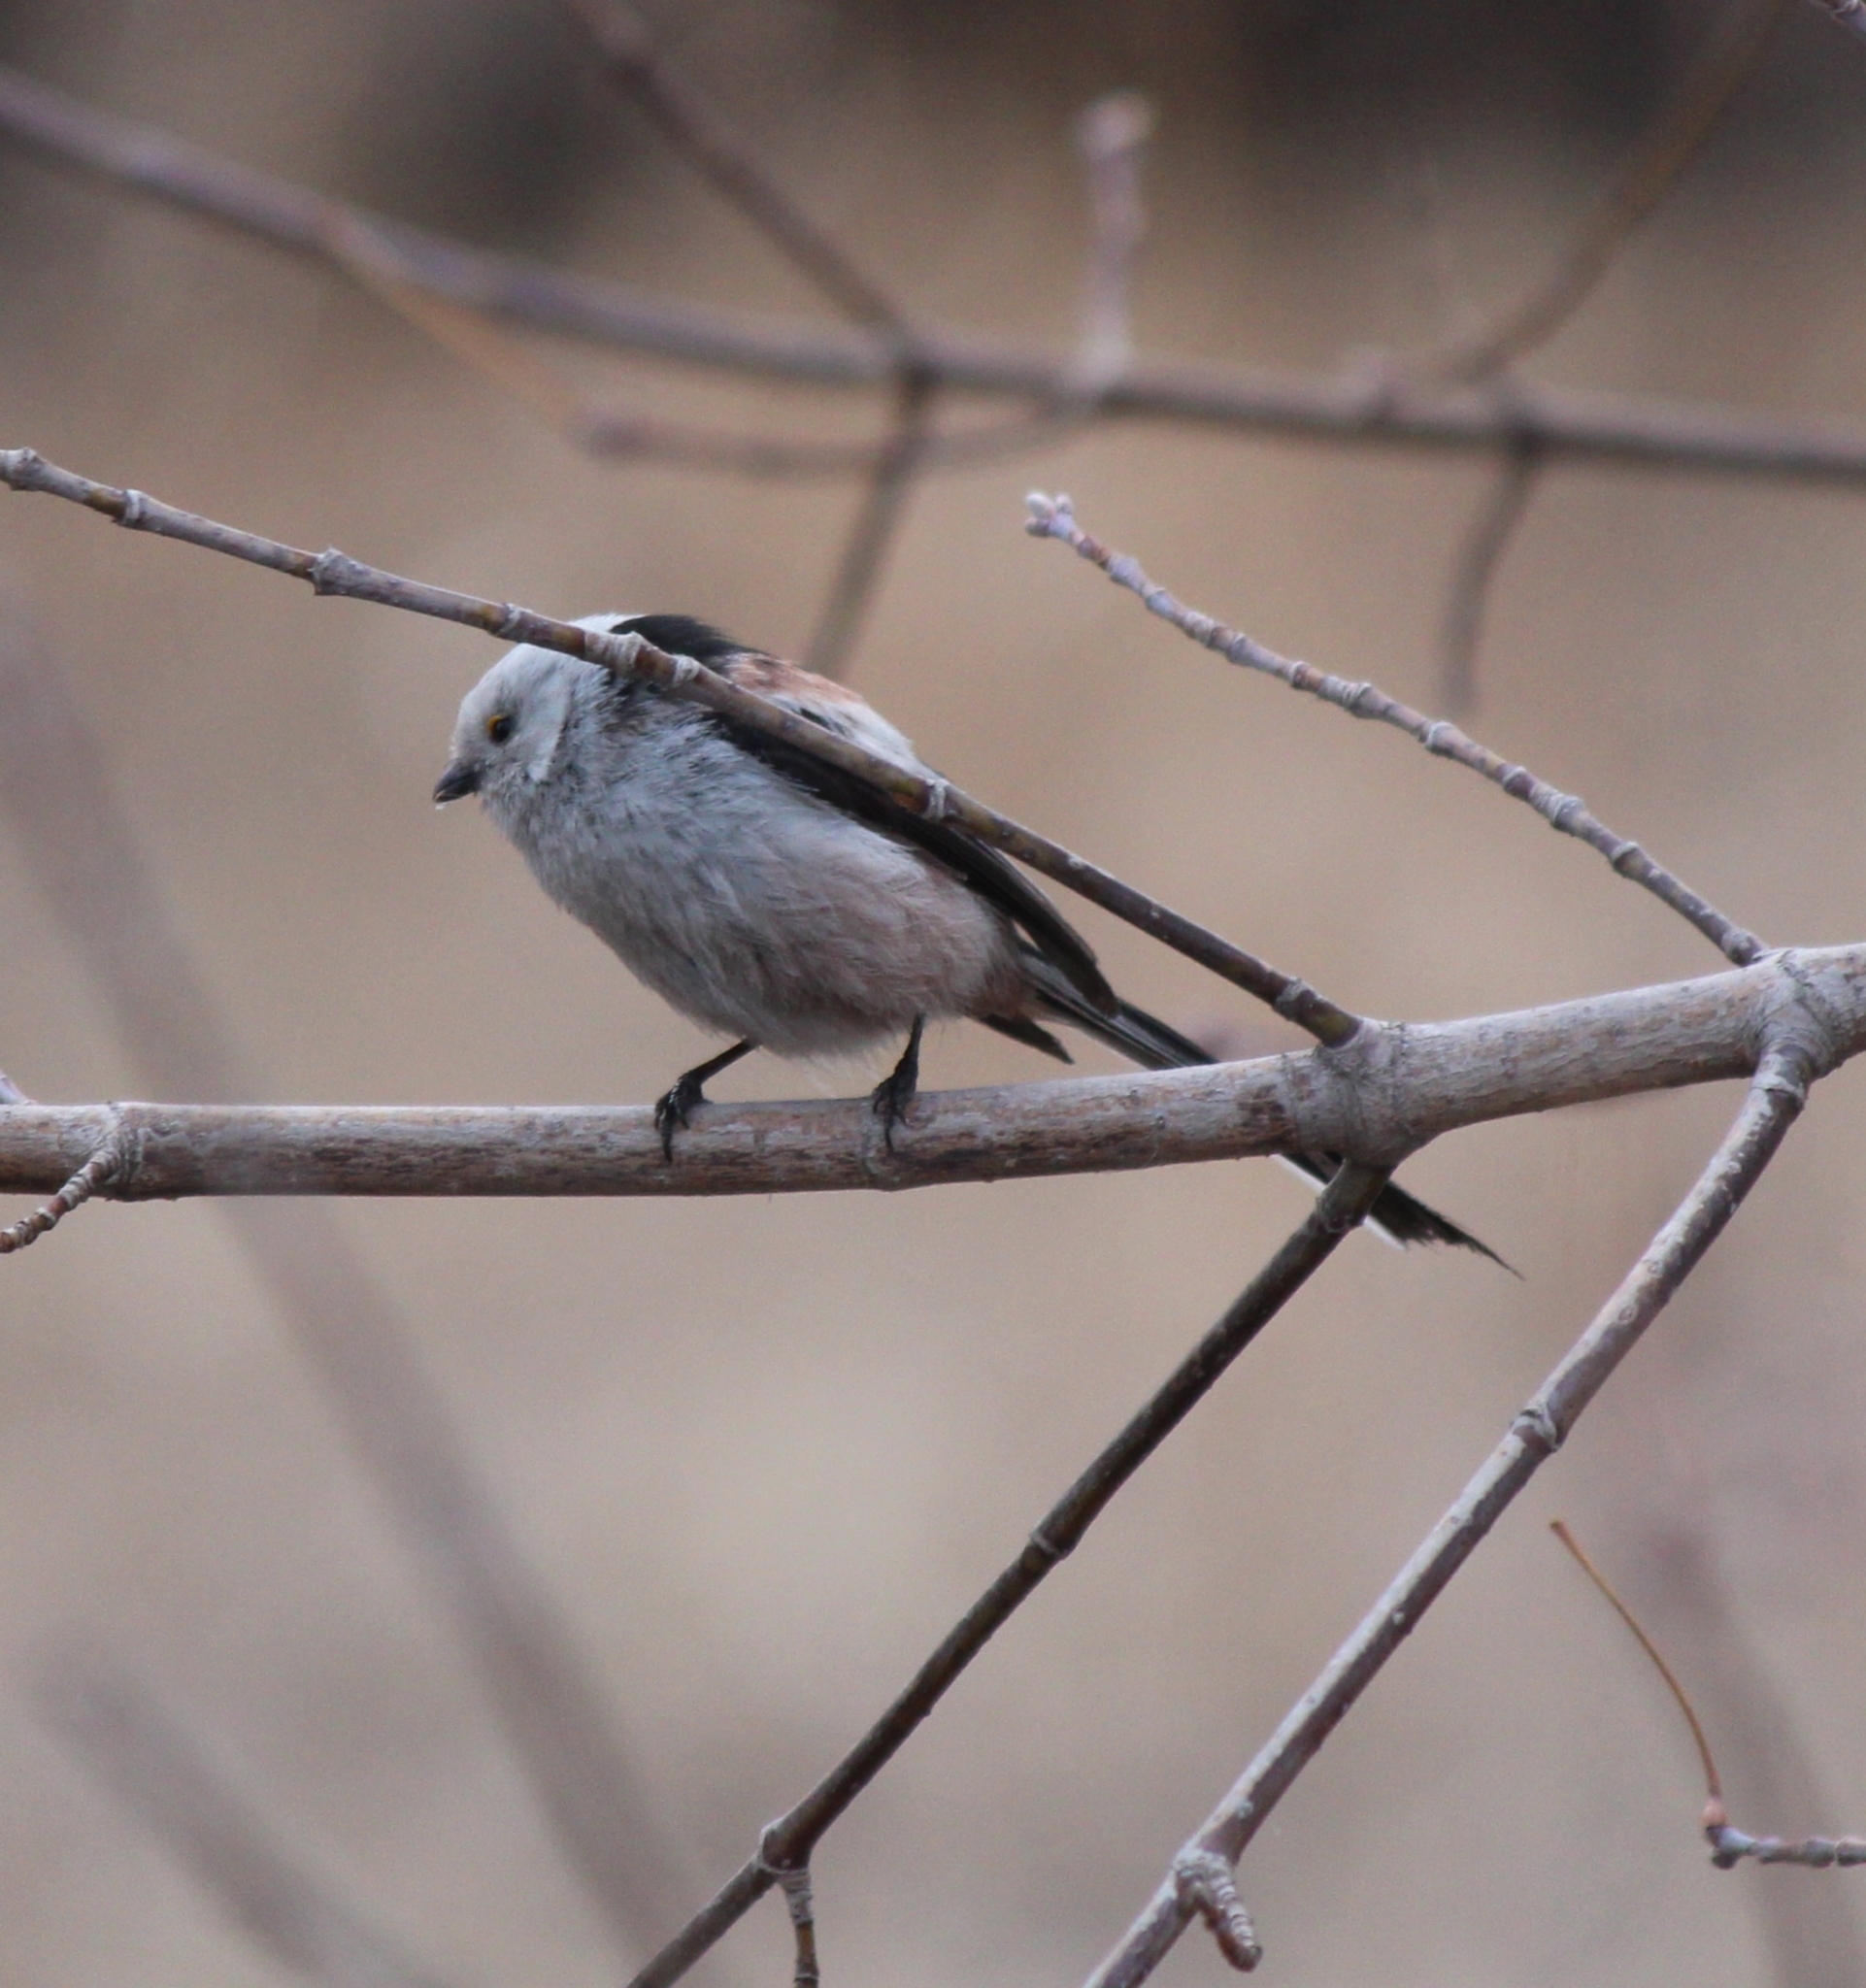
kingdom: Animalia
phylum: Chordata
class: Aves
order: Passeriformes
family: Aegithalidae
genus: Aegithalos
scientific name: Aegithalos caudatus
